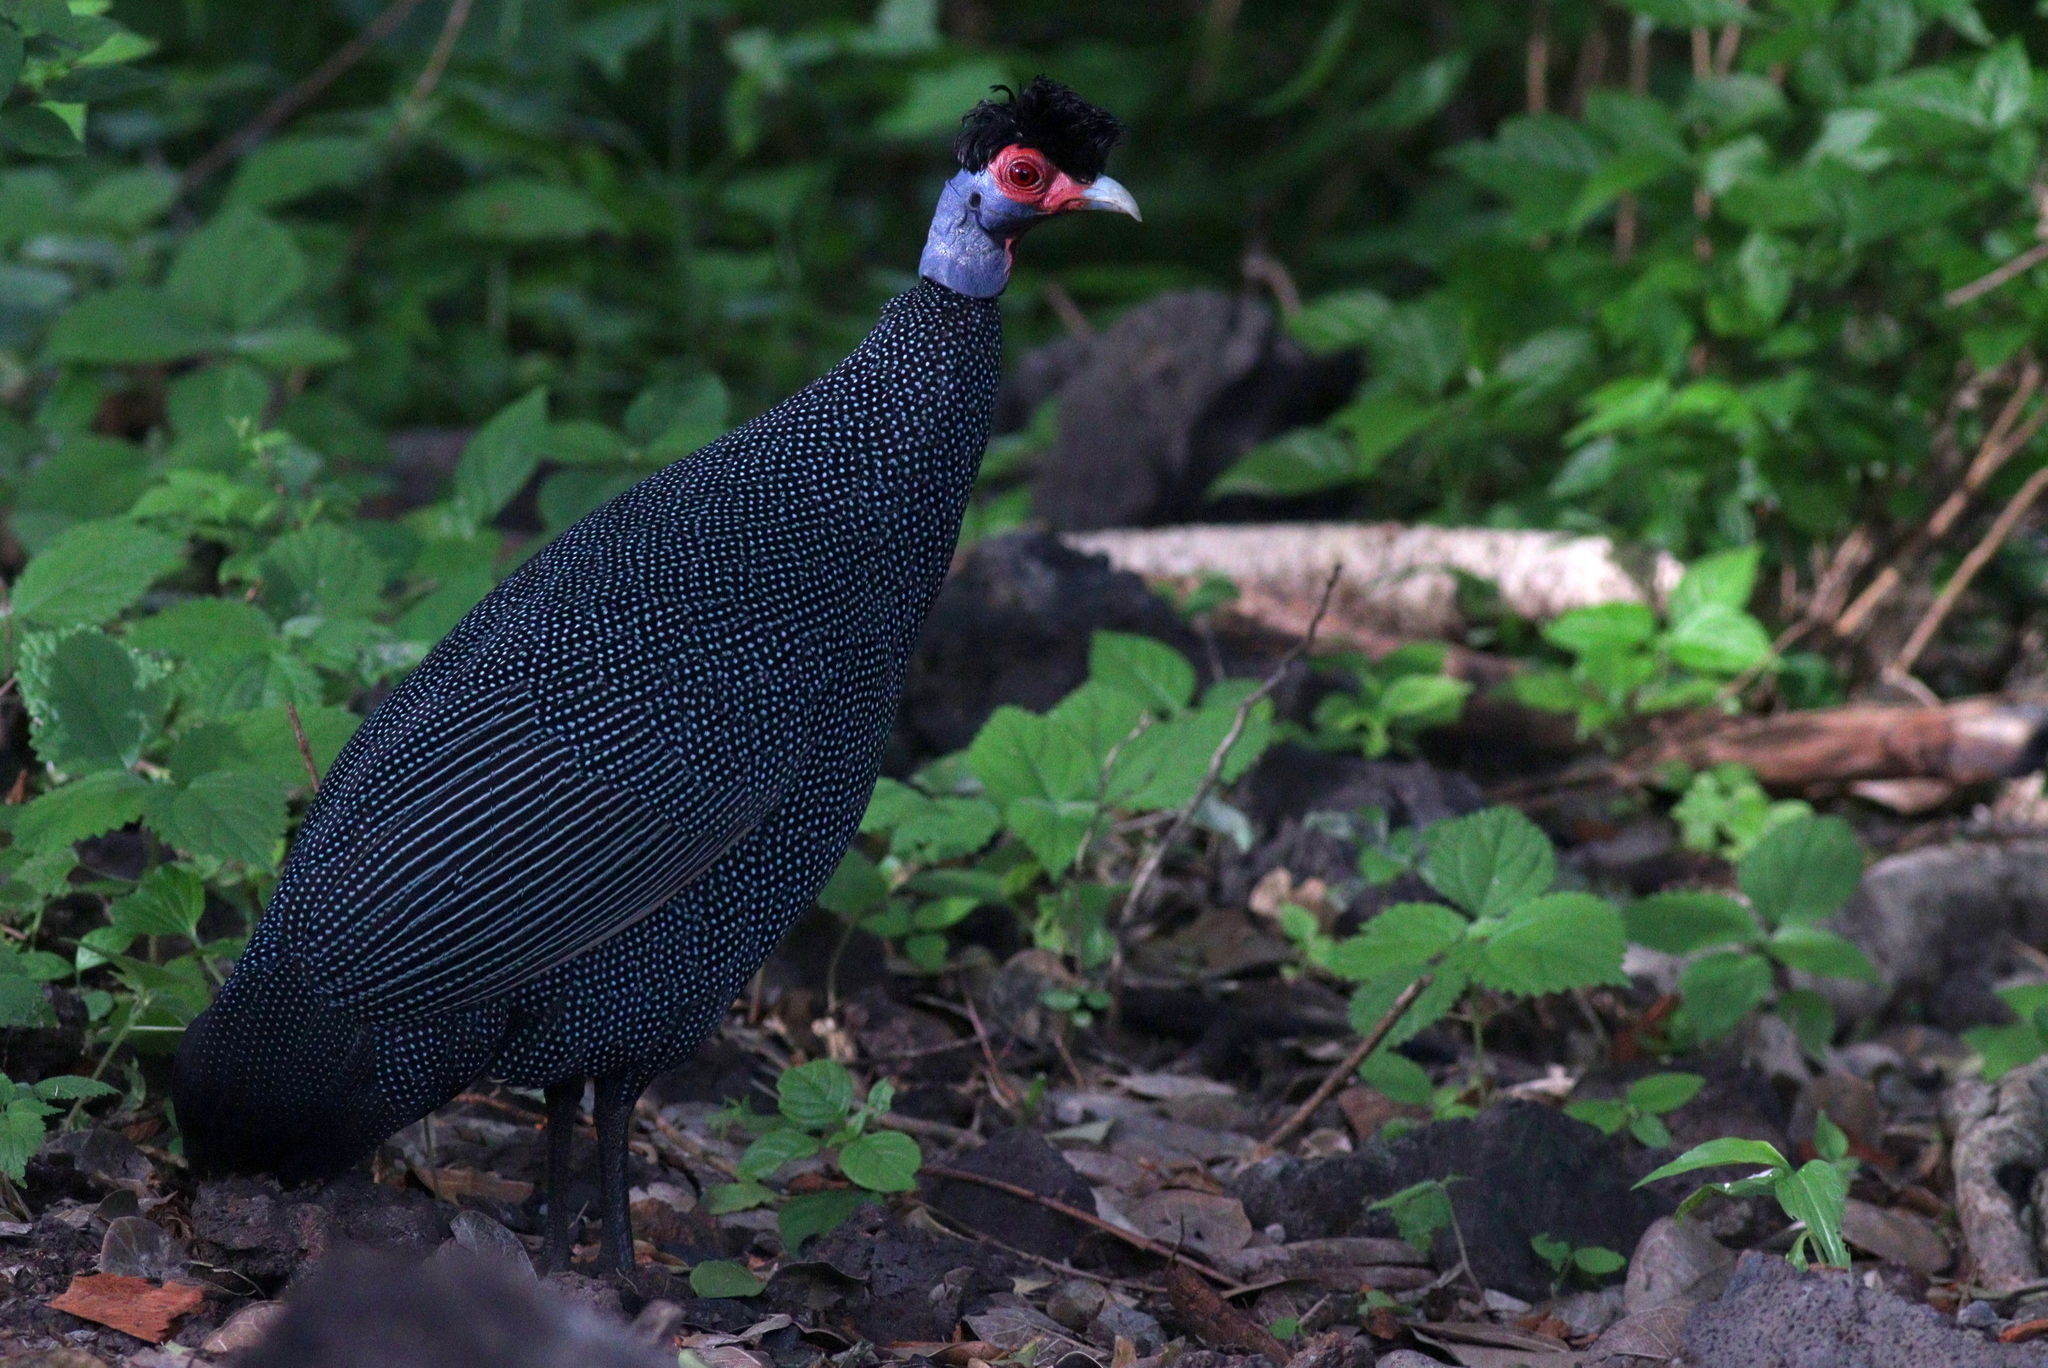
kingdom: Animalia
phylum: Chordata
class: Aves
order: Galliformes
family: Numididae
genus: Guttera
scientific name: Guttera pucherani
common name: Crested guineafowl
